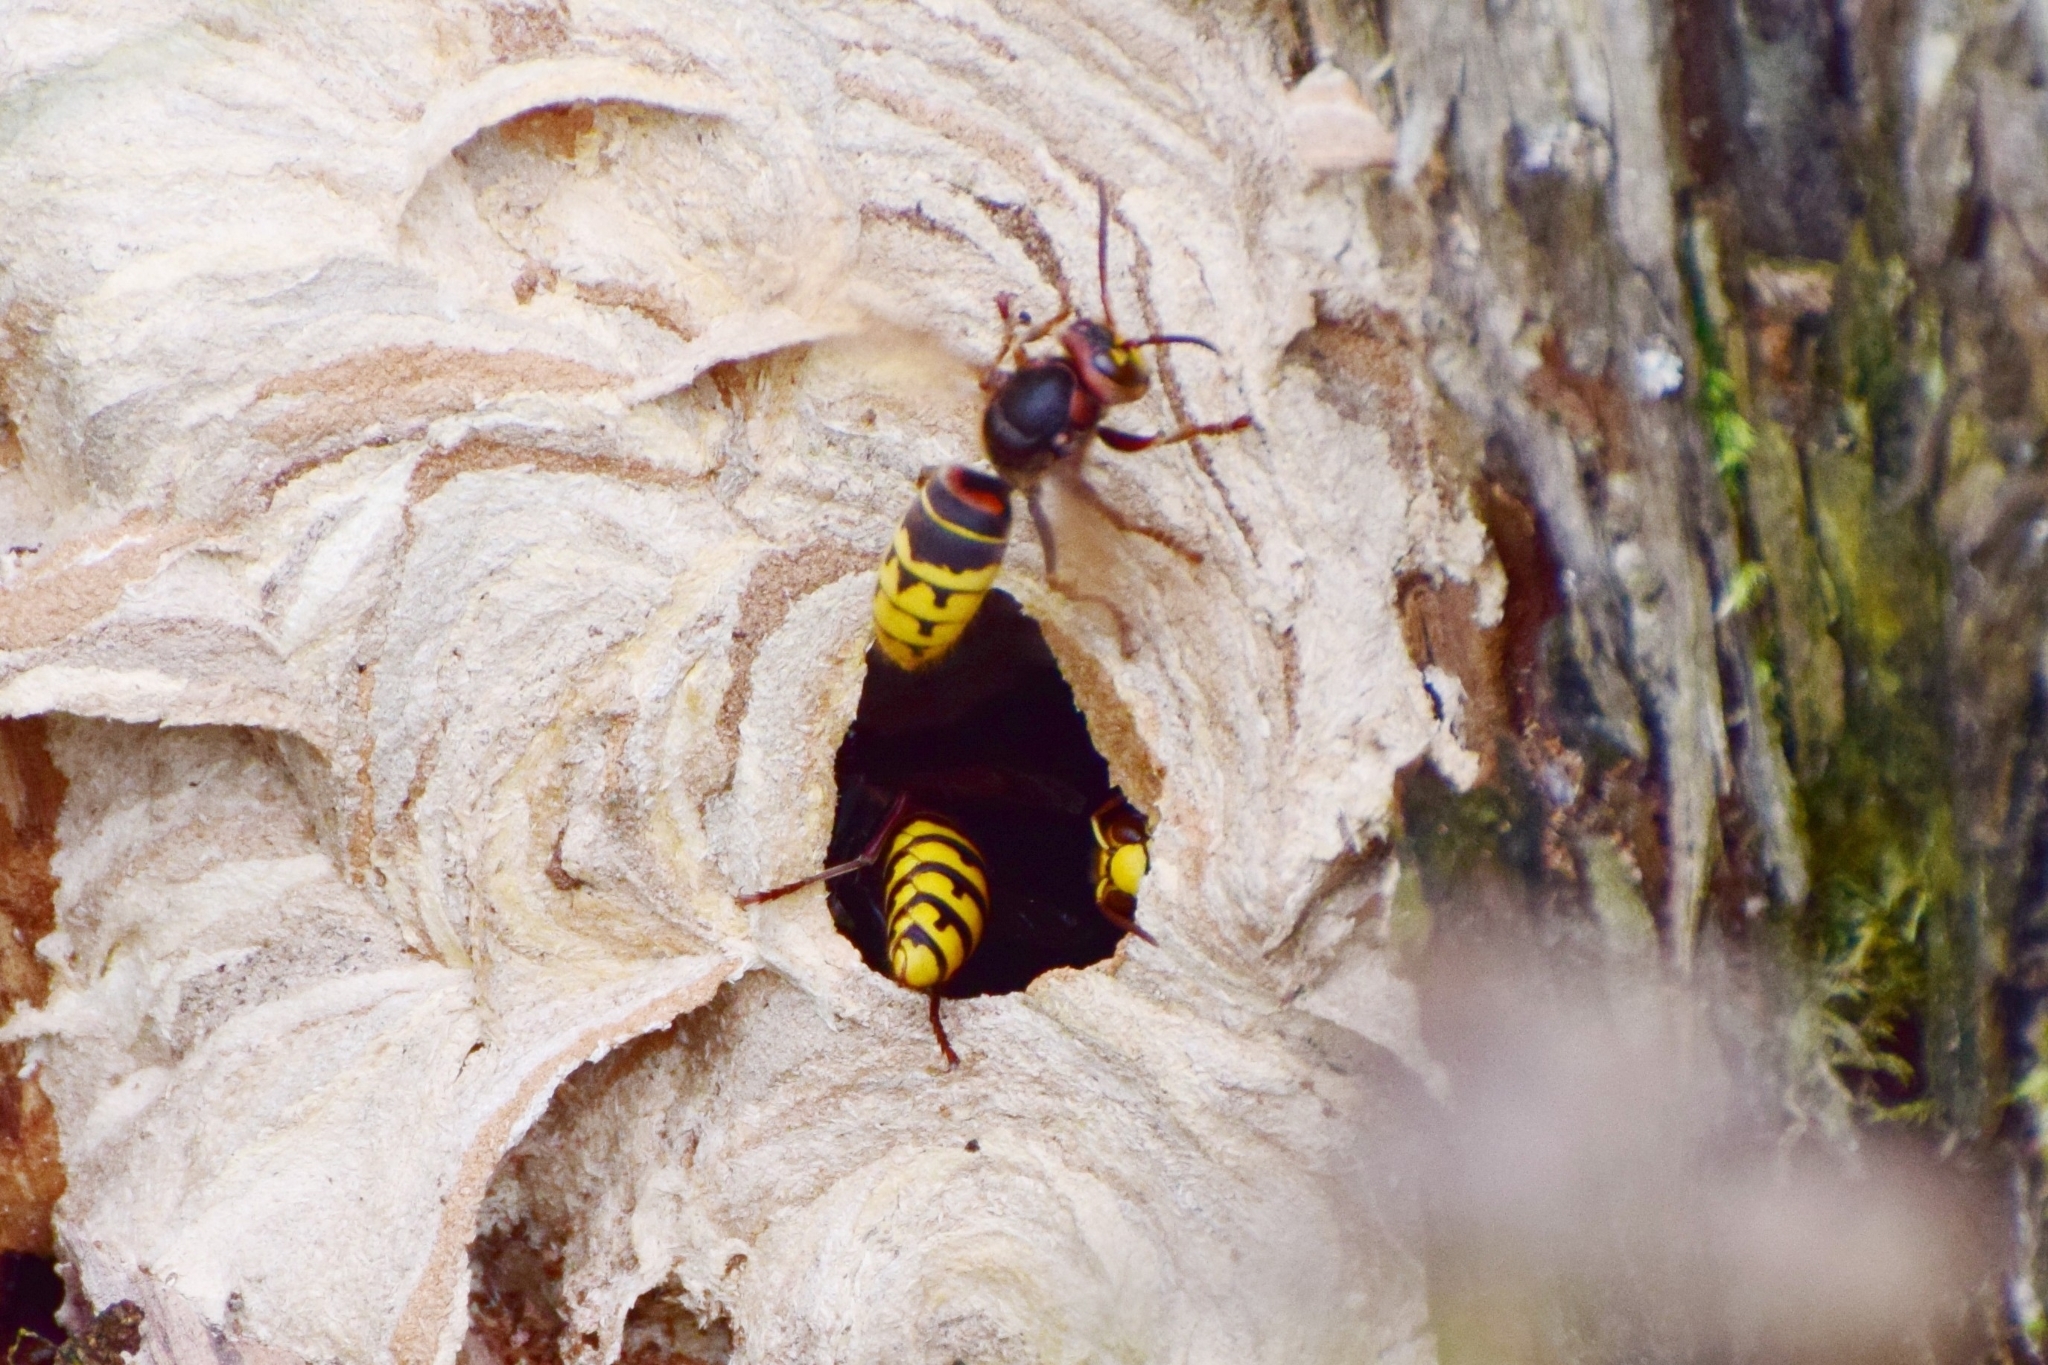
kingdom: Animalia
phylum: Arthropoda
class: Insecta
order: Hymenoptera
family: Vespidae
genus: Vespa
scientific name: Vespa crabro
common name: Hornet
